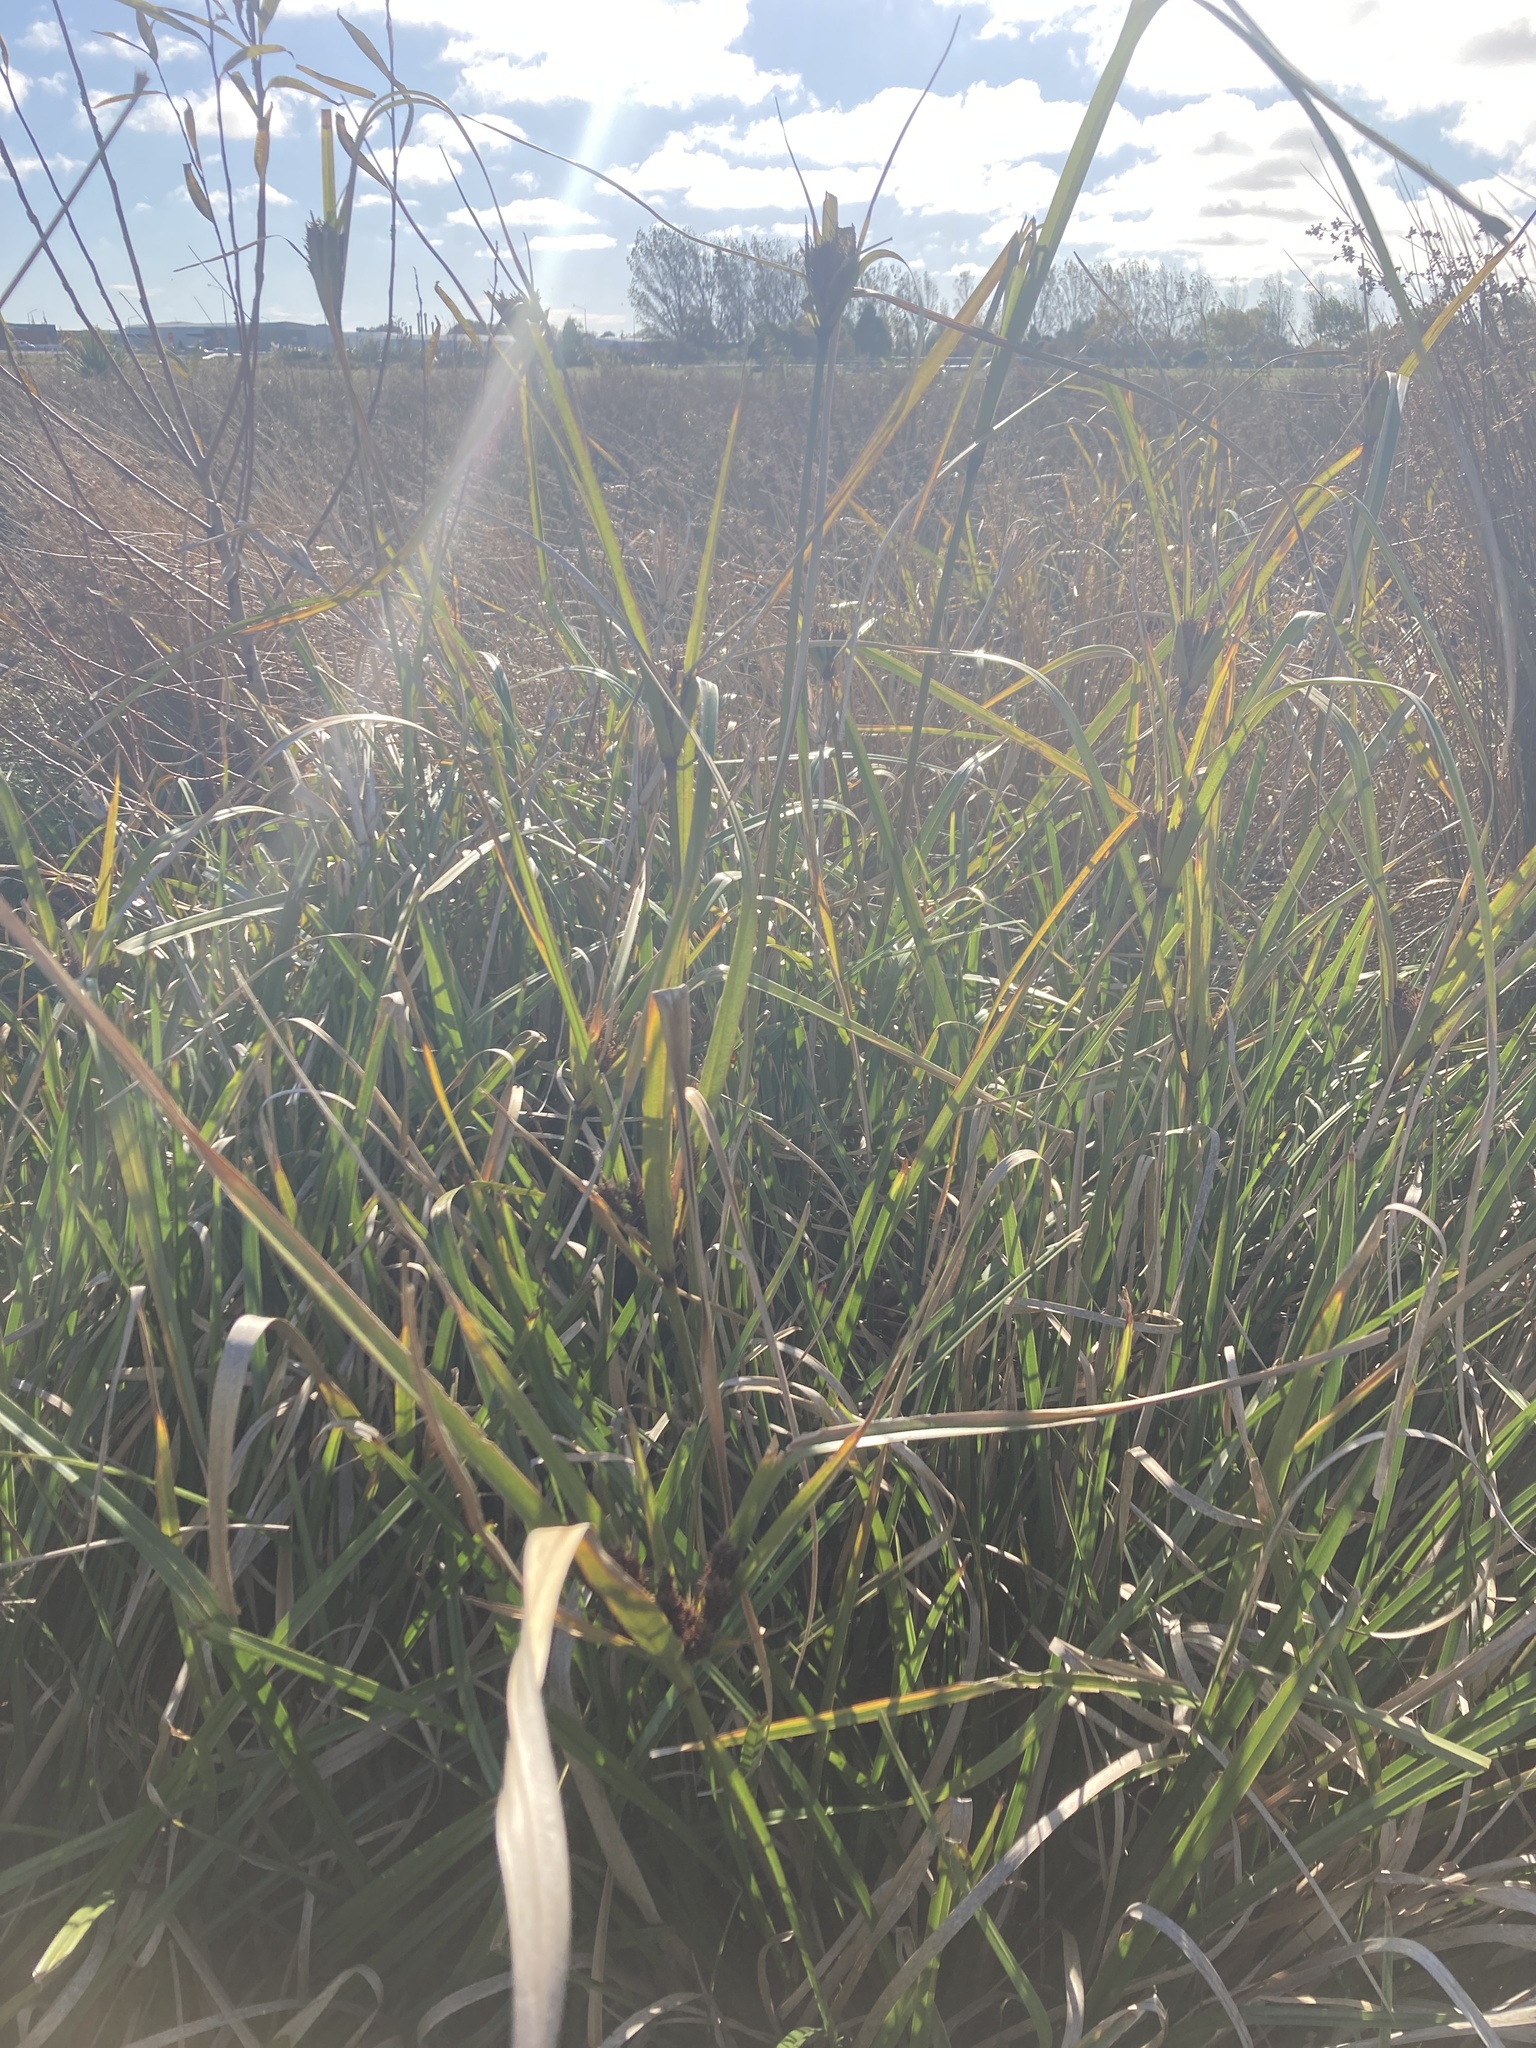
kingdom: Plantae
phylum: Tracheophyta
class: Liliopsida
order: Poales
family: Cyperaceae
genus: Cyperus
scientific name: Cyperus ustulatus
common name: Giant umbrella-sedge
